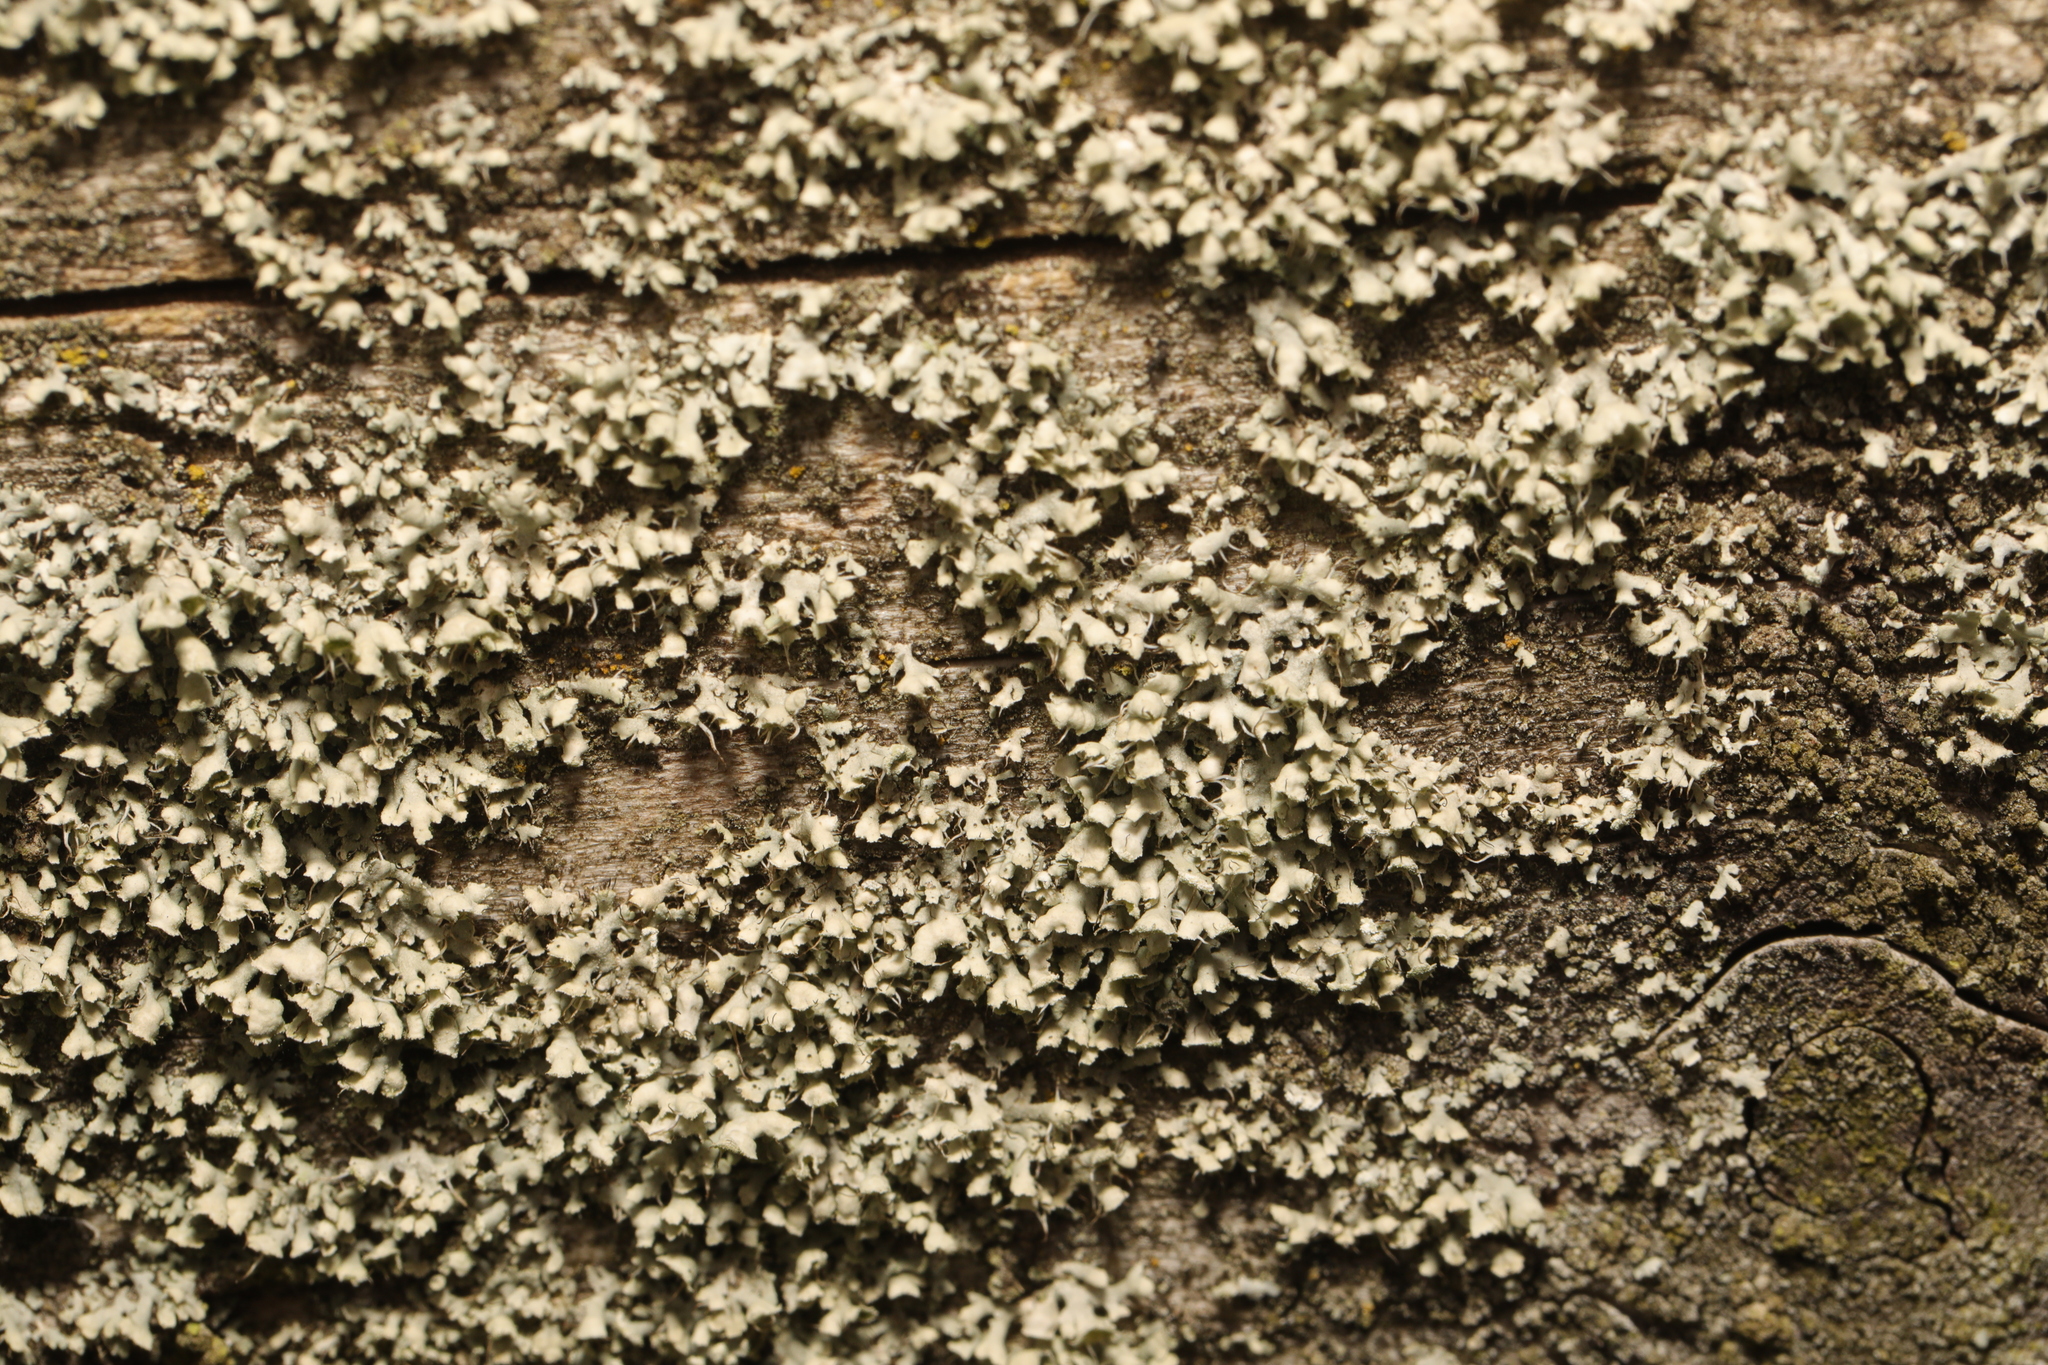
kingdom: Fungi
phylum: Ascomycota
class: Lecanoromycetes
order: Caliciales
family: Physciaceae
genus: Physcia
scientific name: Physcia adscendens
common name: Hooded rosette lichen
